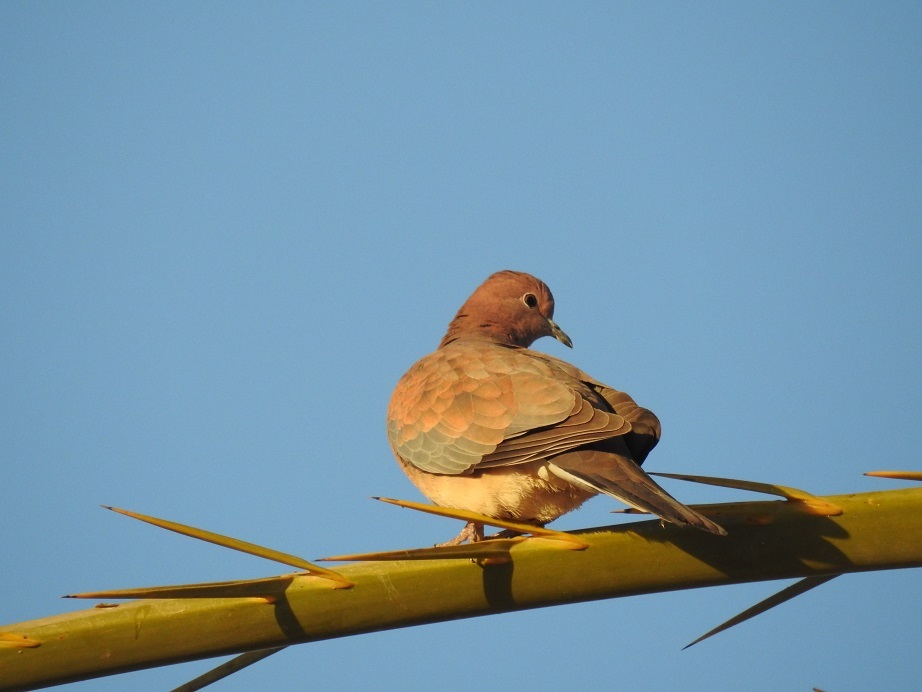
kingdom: Animalia
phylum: Chordata
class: Aves
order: Columbiformes
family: Columbidae
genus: Spilopelia
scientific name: Spilopelia senegalensis
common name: Laughing dove
